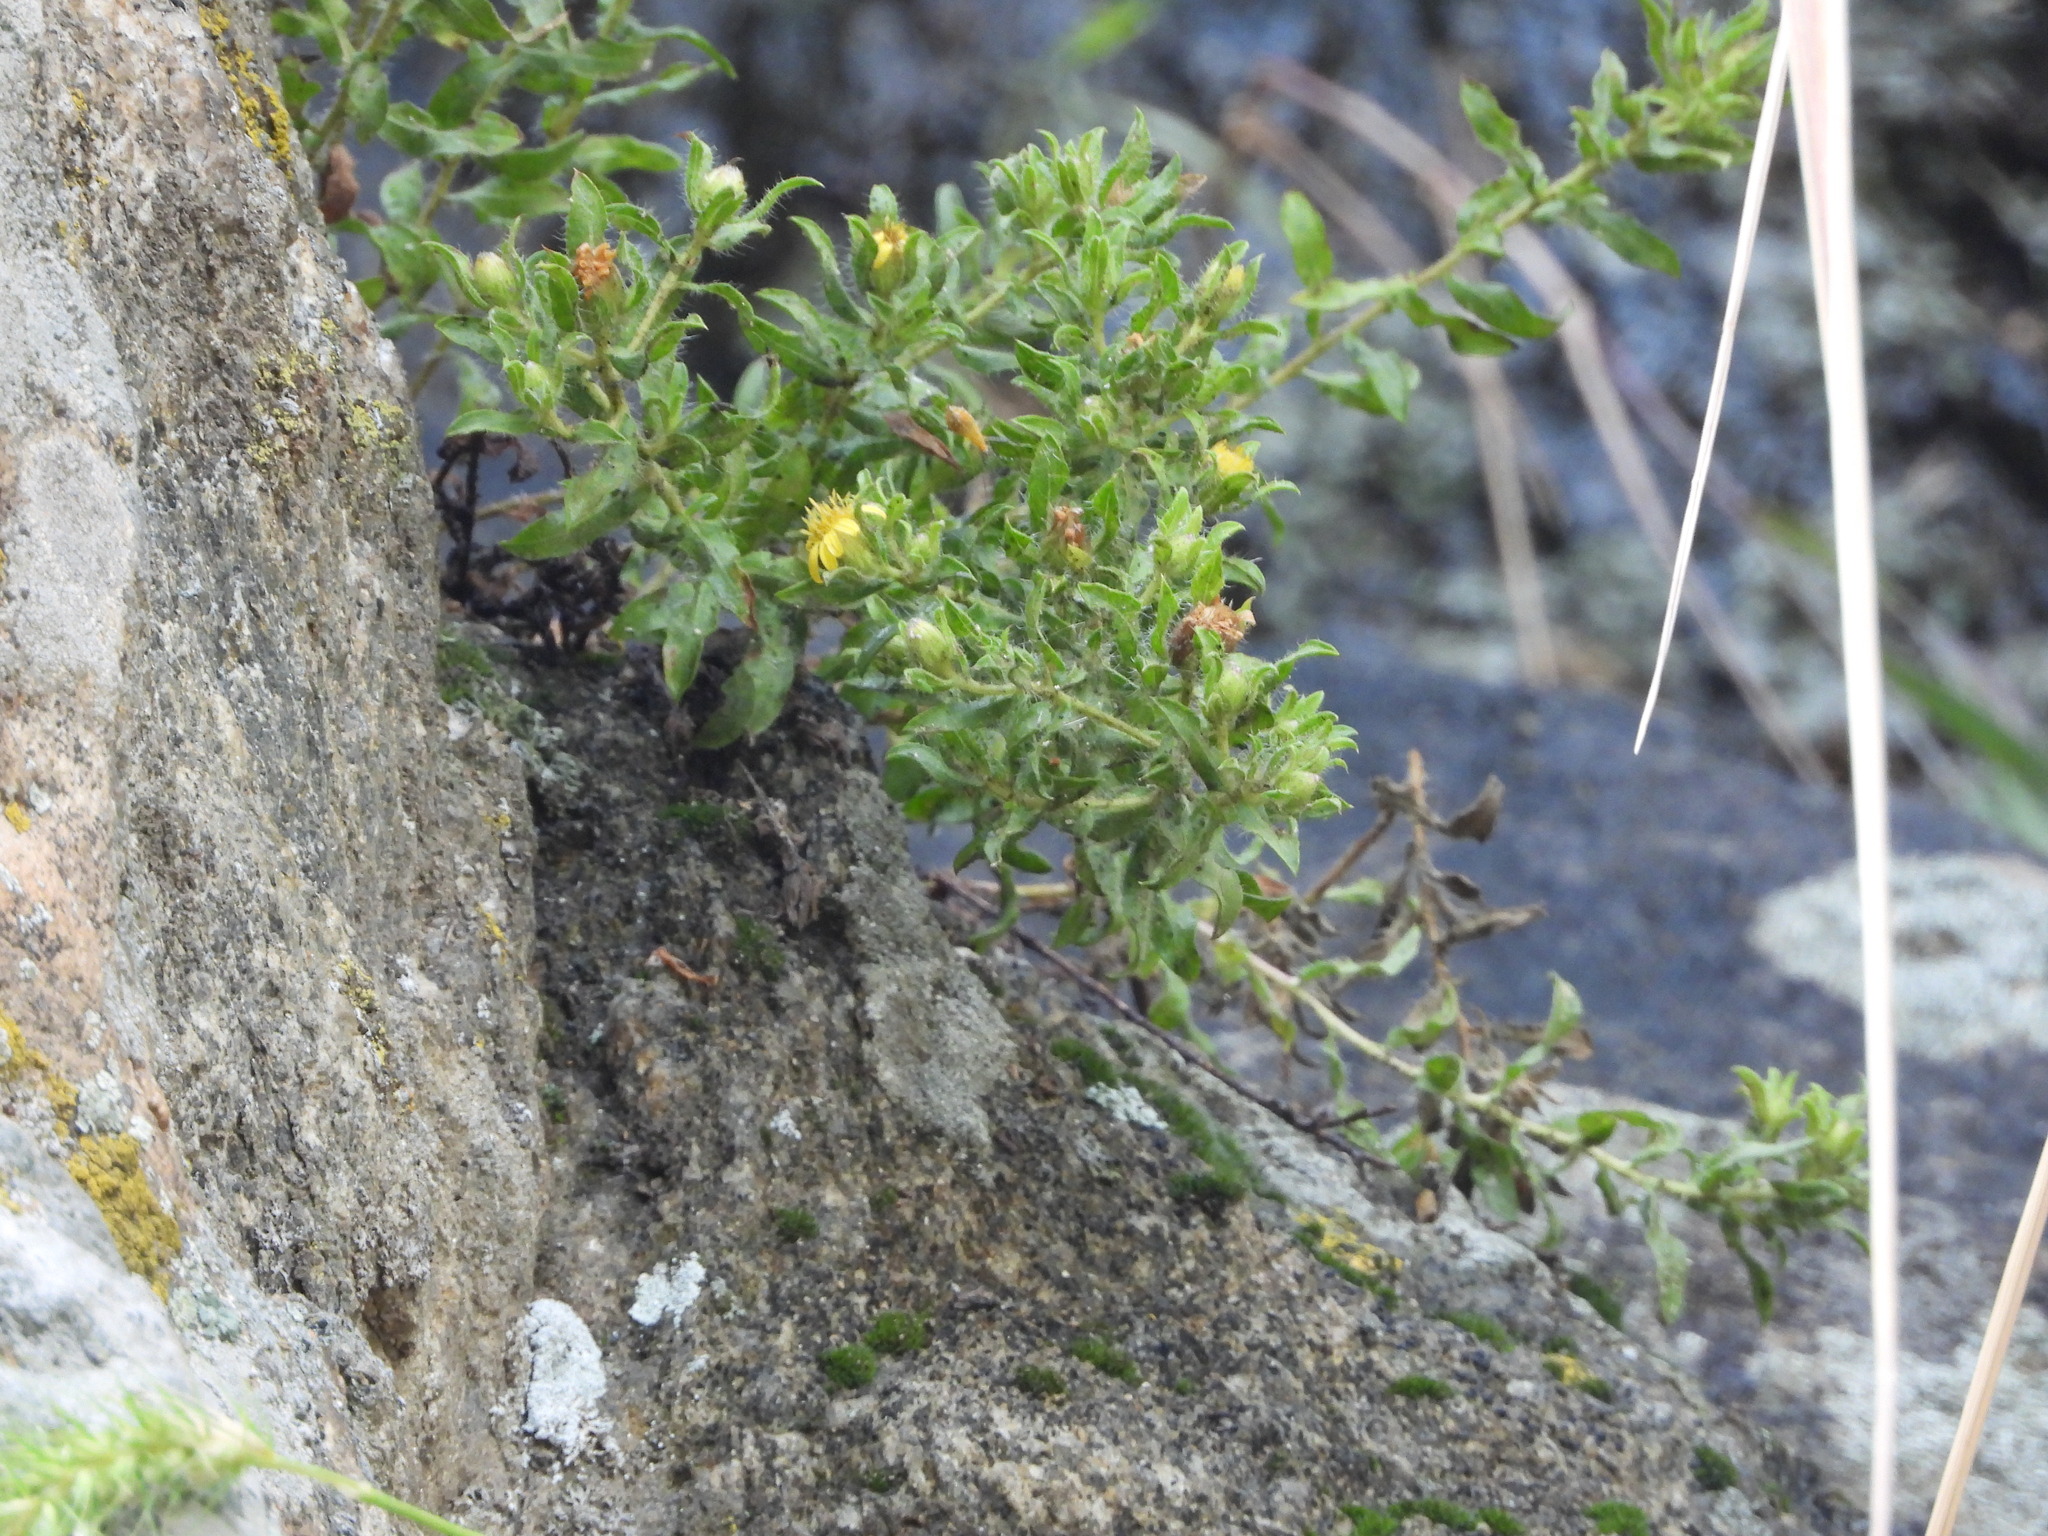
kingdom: Plantae
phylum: Tracheophyta
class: Magnoliopsida
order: Asterales
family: Asteraceae
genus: Heterotheca
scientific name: Heterotheca paniculata
